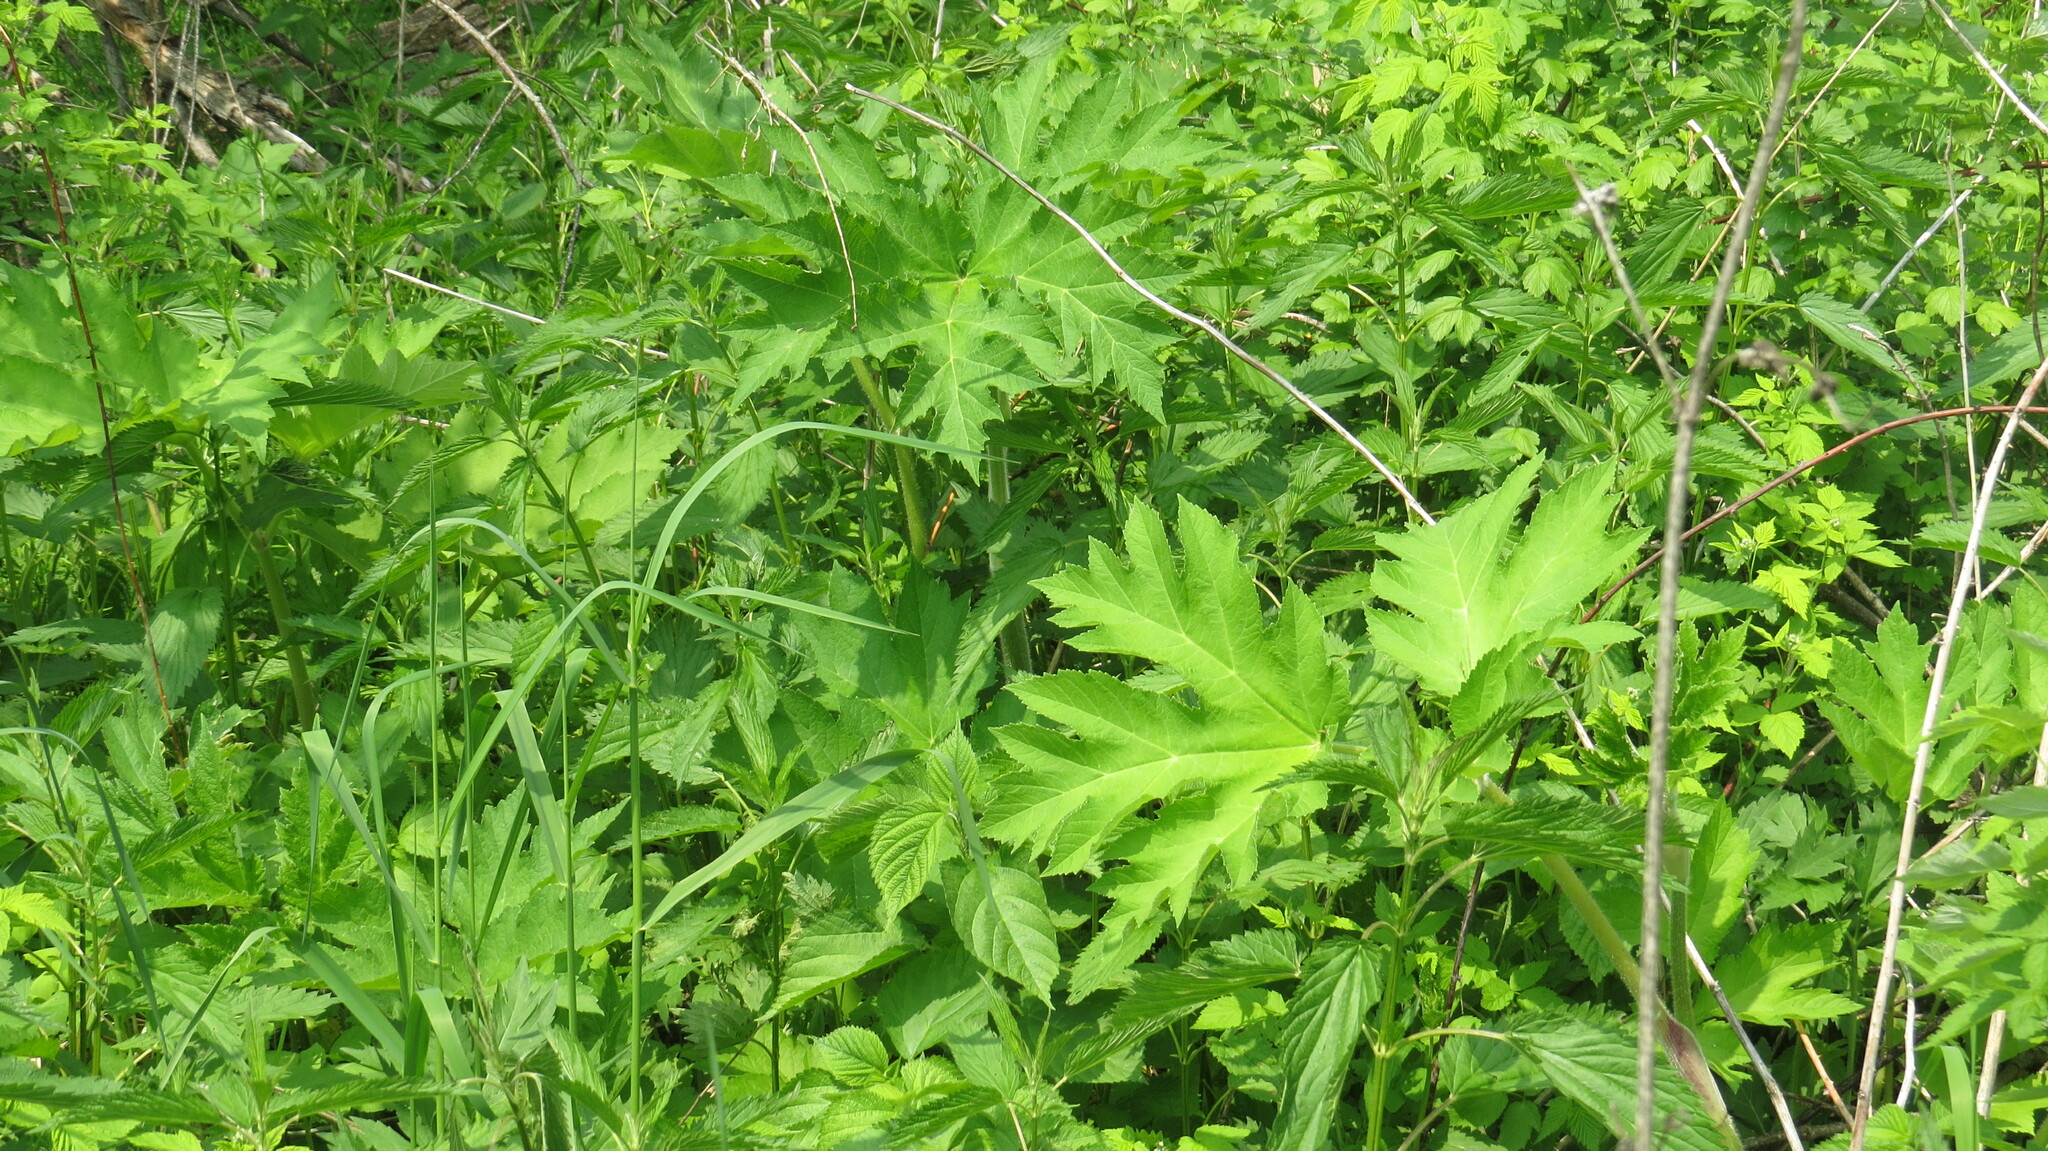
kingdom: Plantae
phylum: Tracheophyta
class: Magnoliopsida
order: Apiales
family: Apiaceae
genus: Heracleum
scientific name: Heracleum maximum
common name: American cow parsnip
